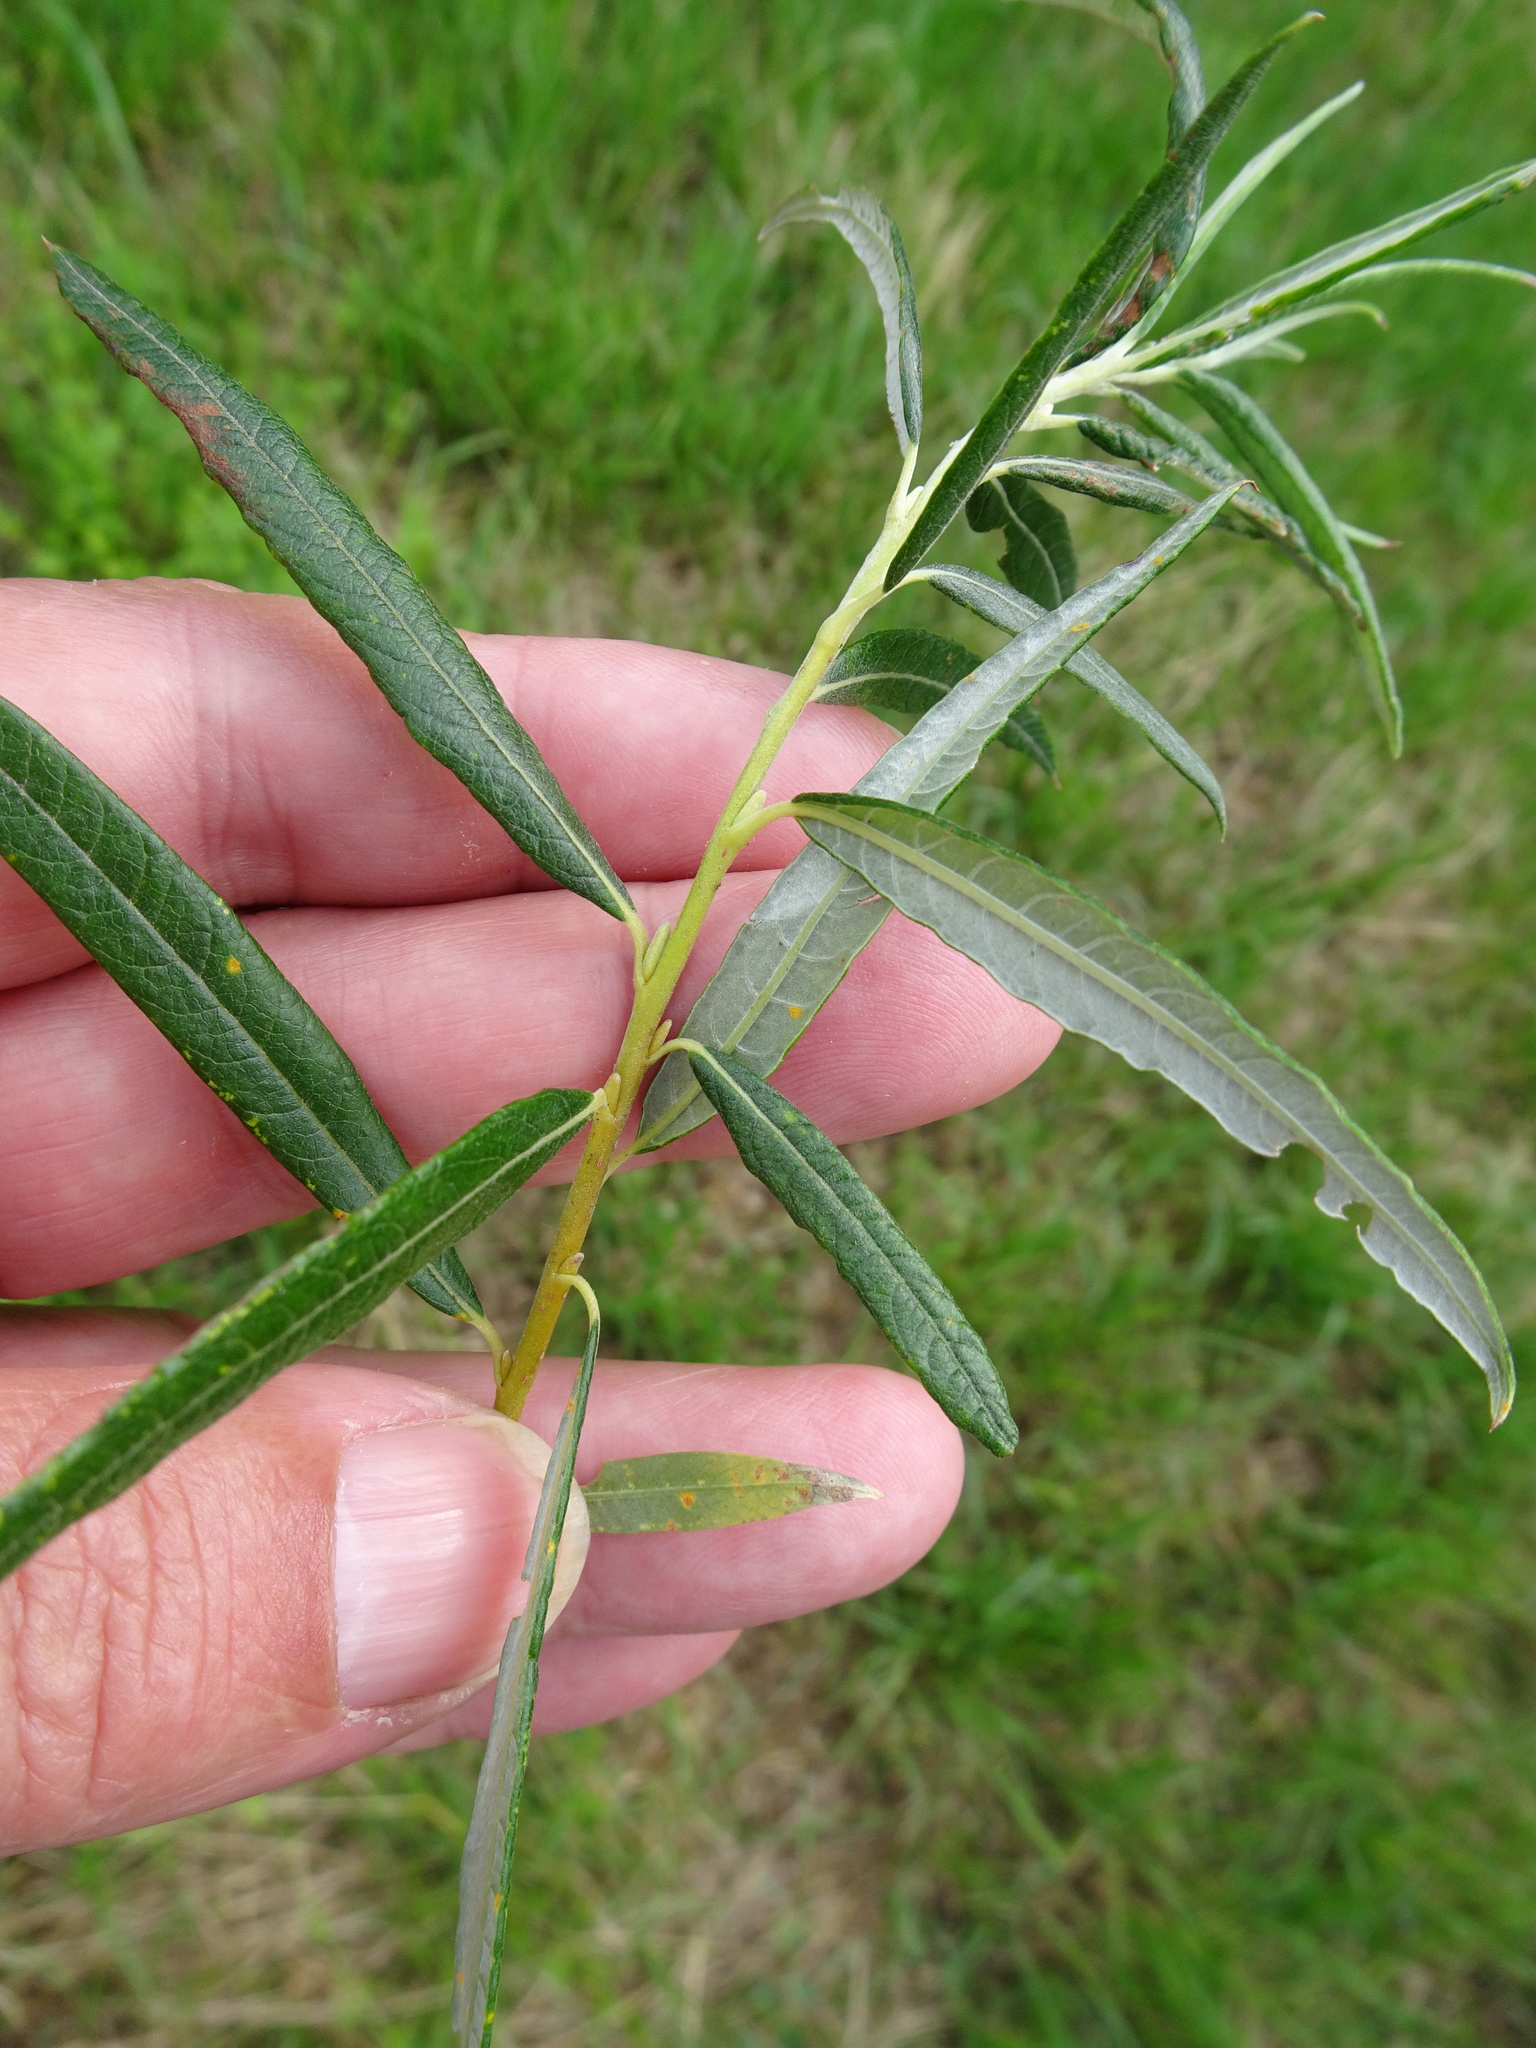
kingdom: Plantae
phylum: Tracheophyta
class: Magnoliopsida
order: Malpighiales
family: Salicaceae
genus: Salix
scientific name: Salix viminalis
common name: Osier
